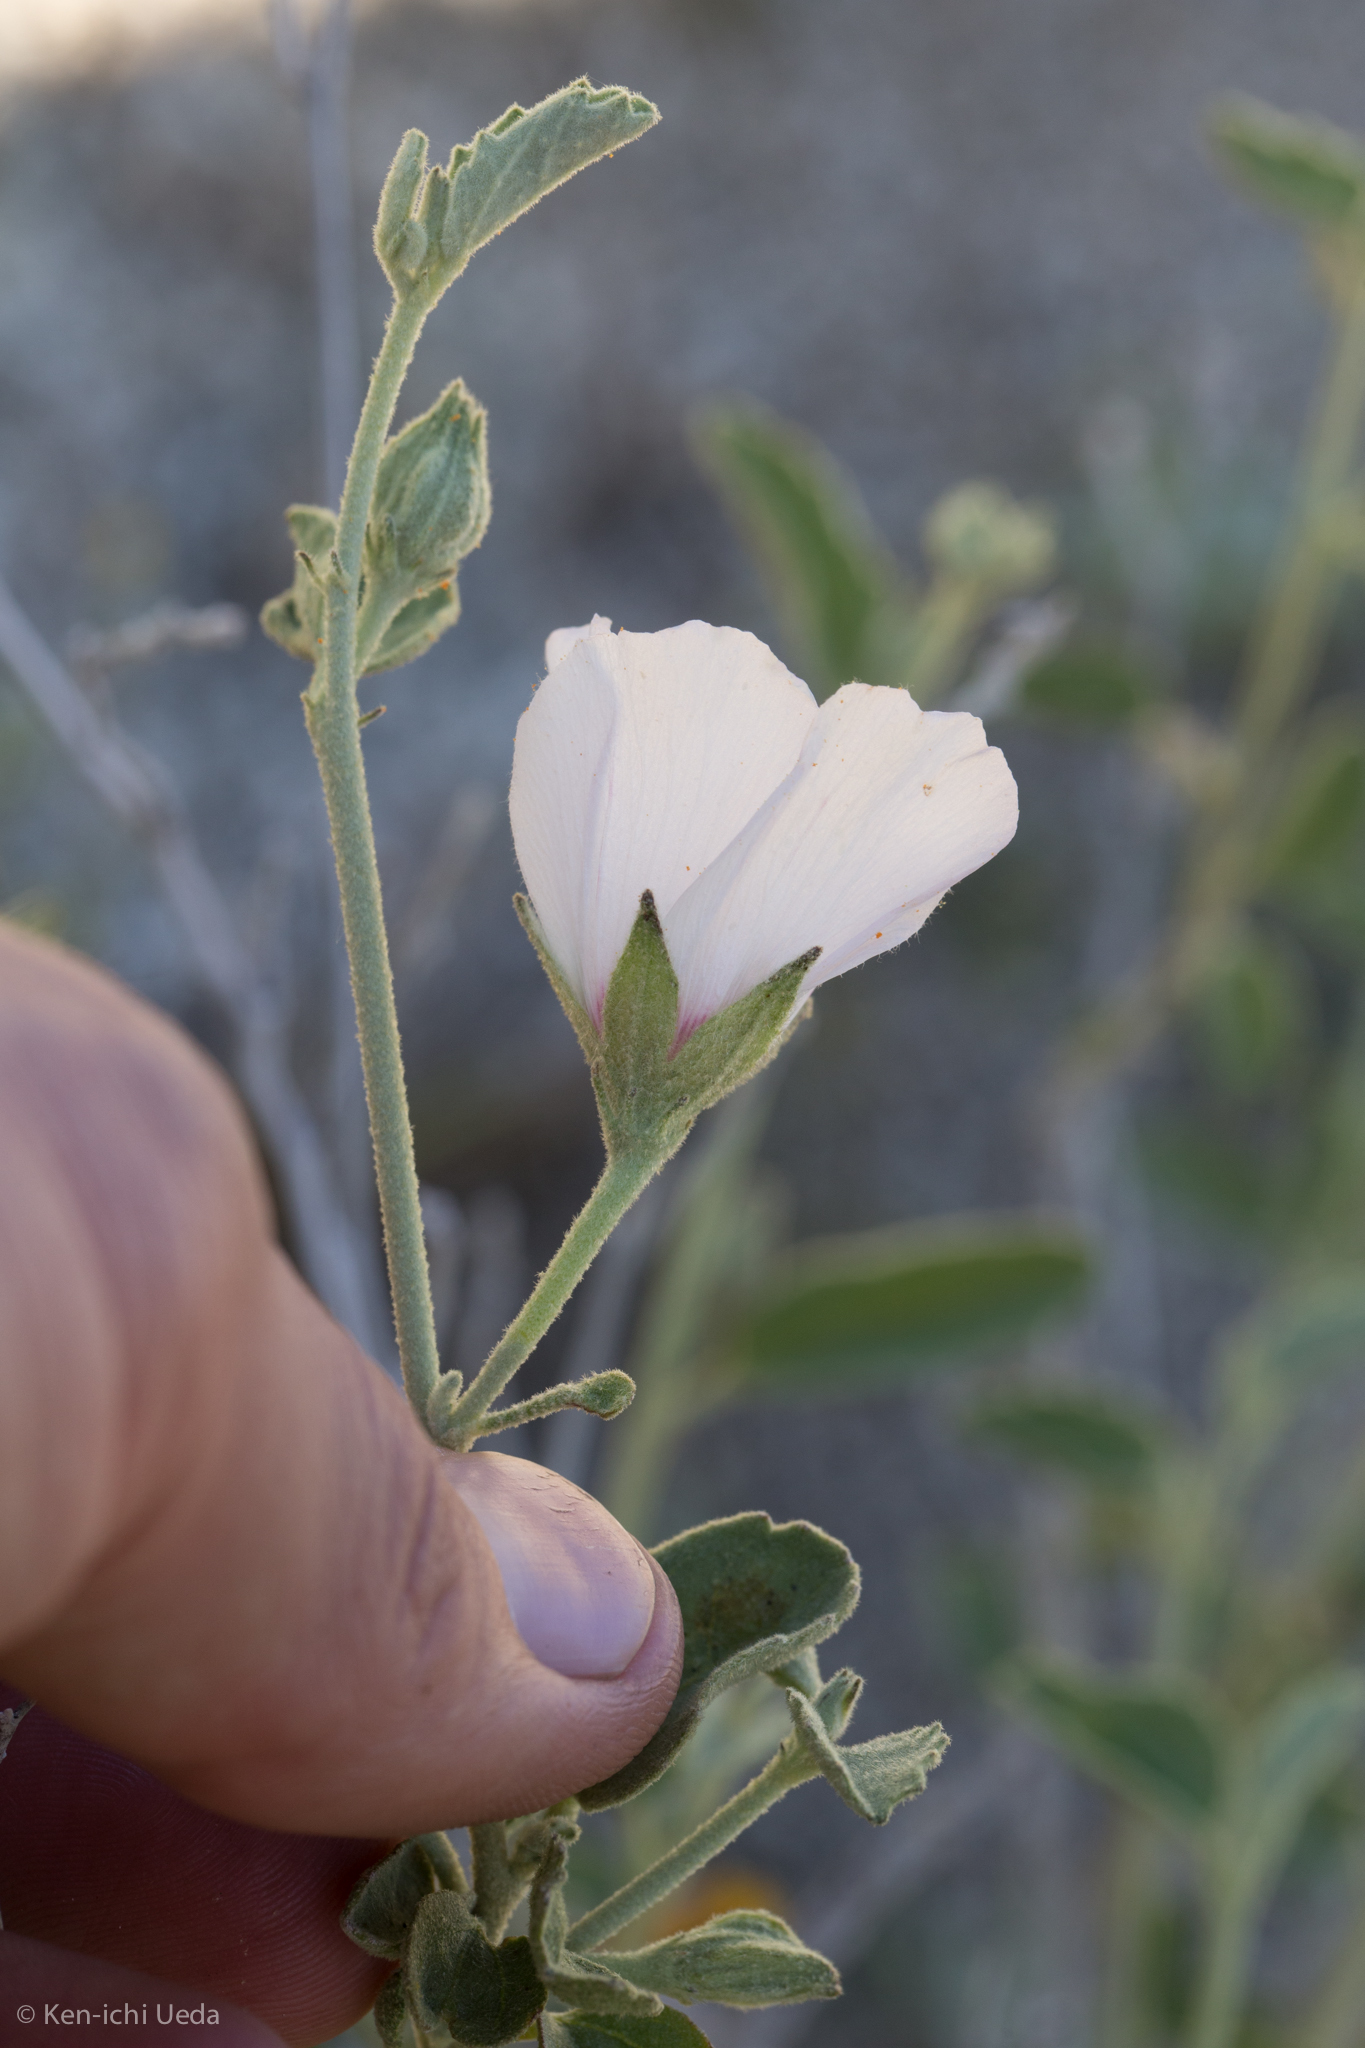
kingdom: Plantae
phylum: Tracheophyta
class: Magnoliopsida
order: Malvales
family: Malvaceae
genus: Hibiscus
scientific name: Hibiscus denudatus
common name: Paleface
